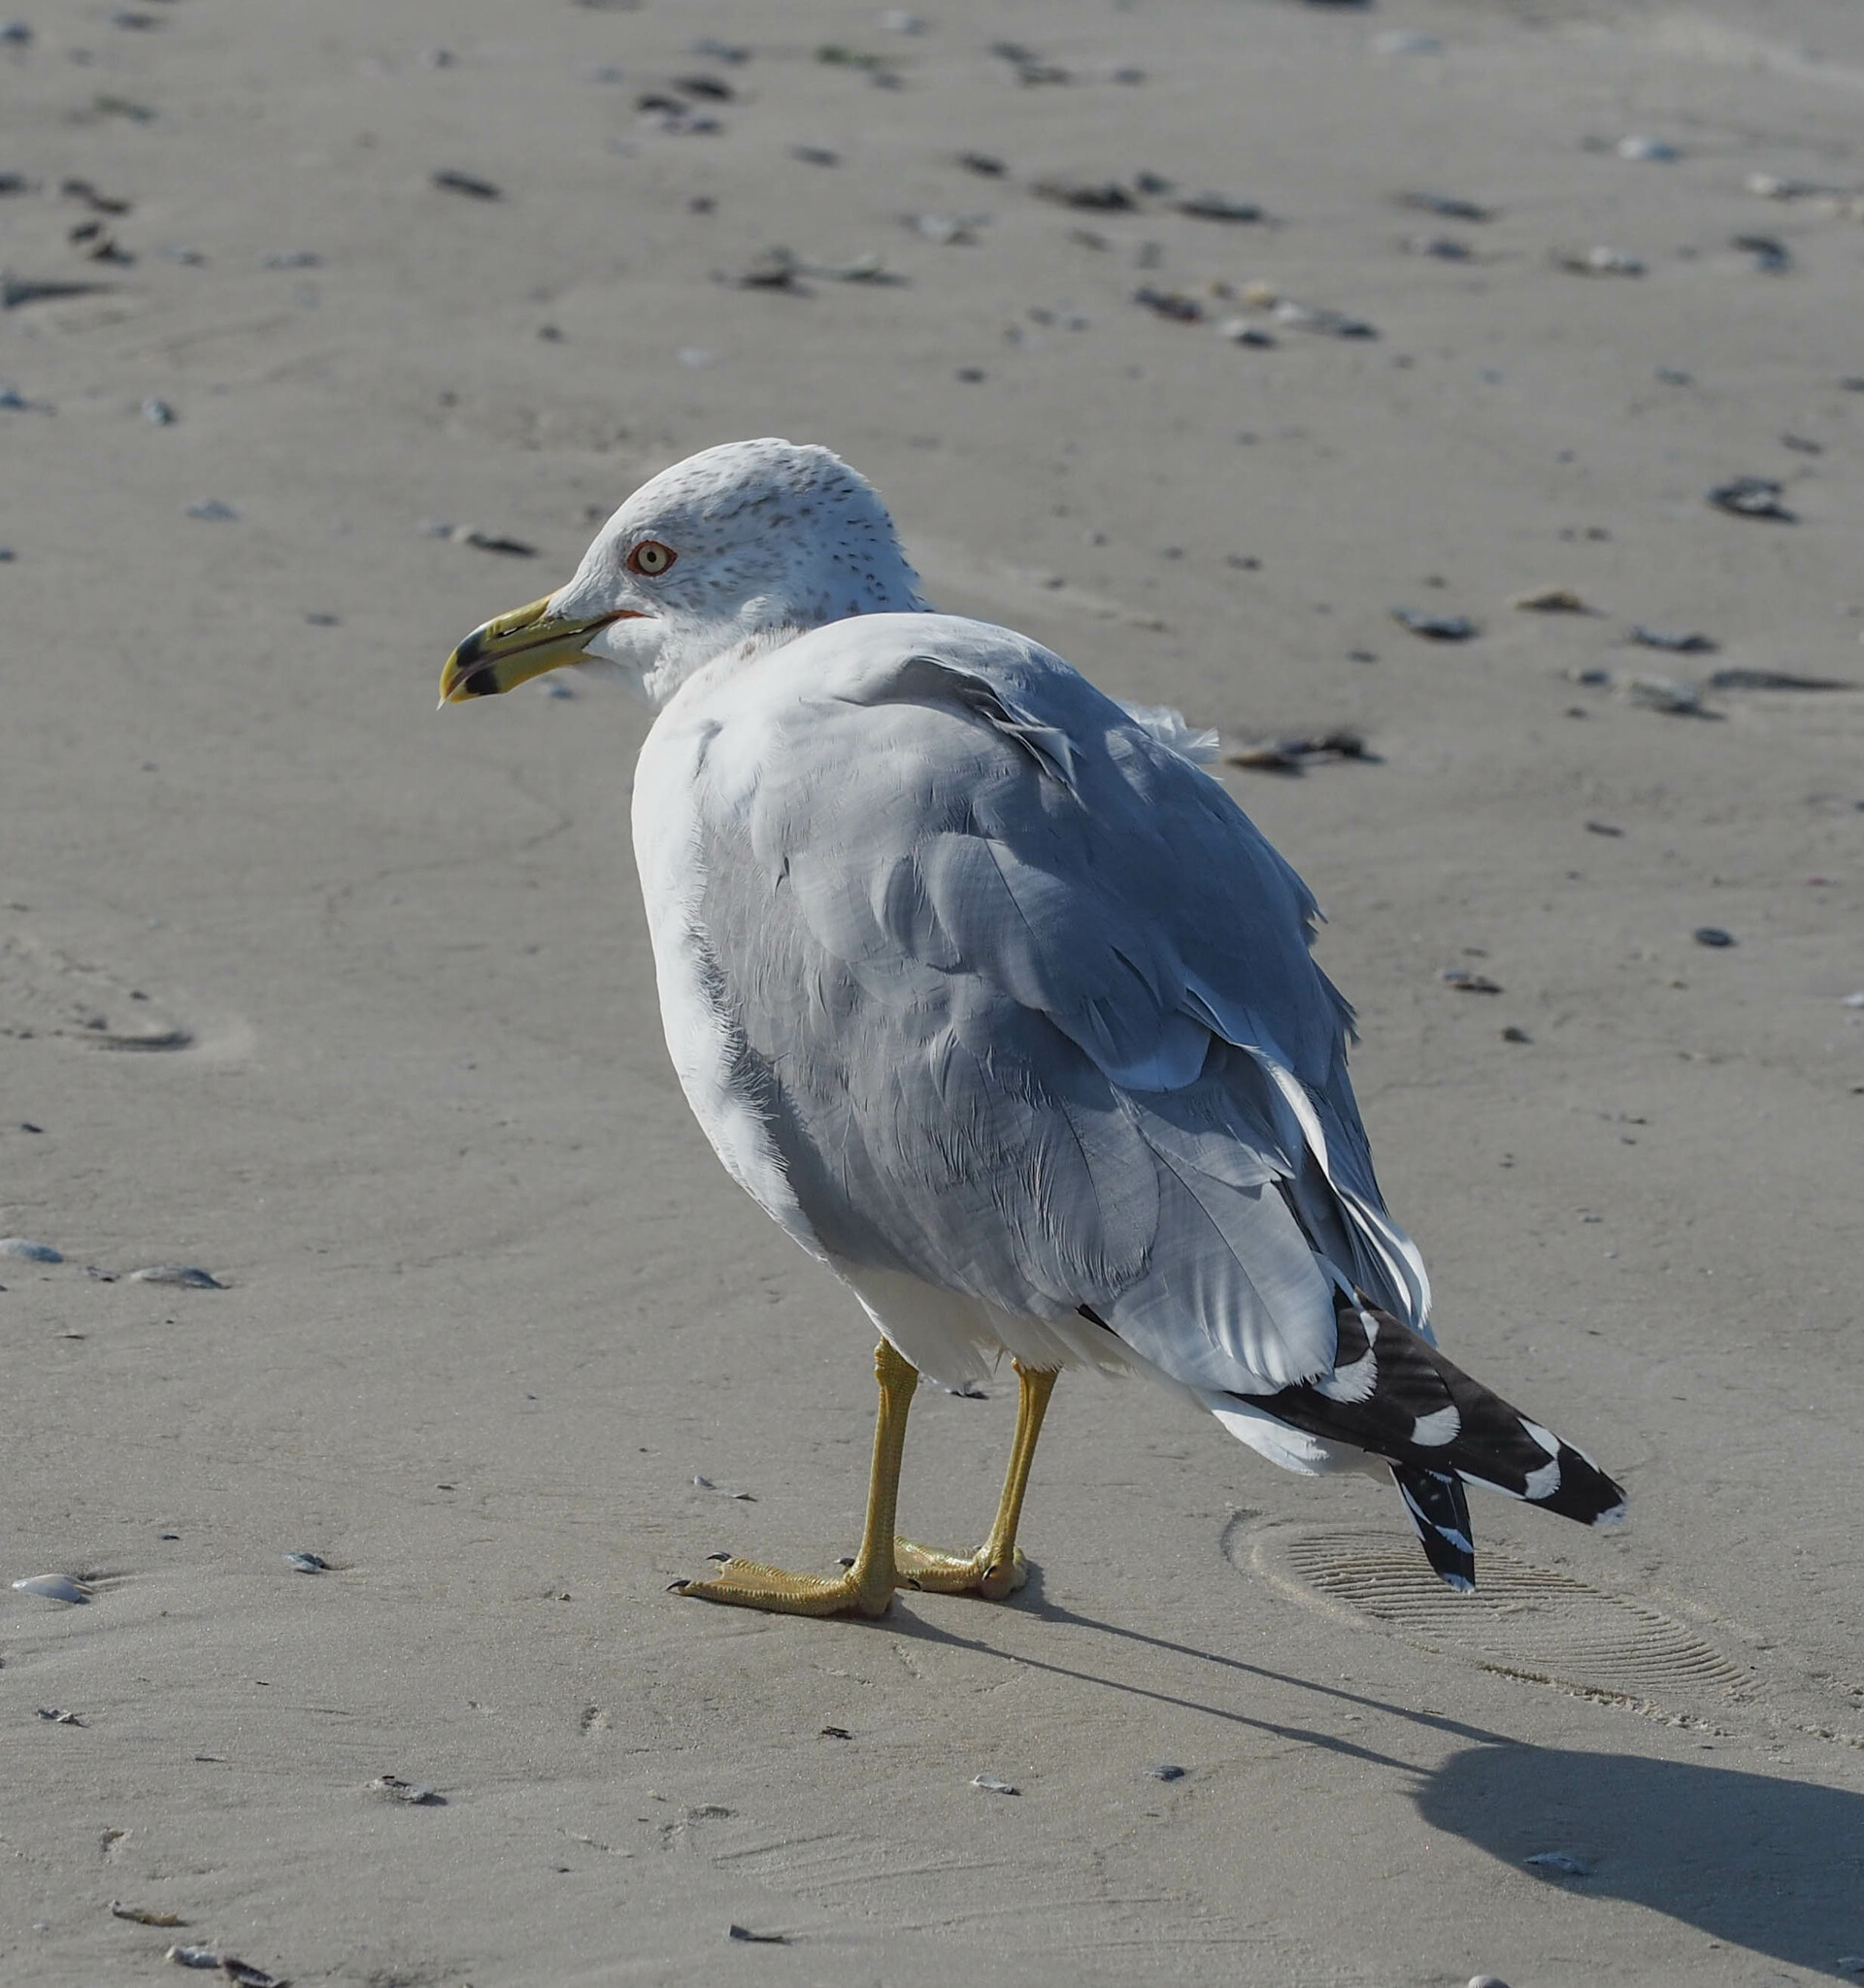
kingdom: Animalia
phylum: Chordata
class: Aves
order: Charadriiformes
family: Laridae
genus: Larus
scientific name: Larus delawarensis
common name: Ring-billed gull
